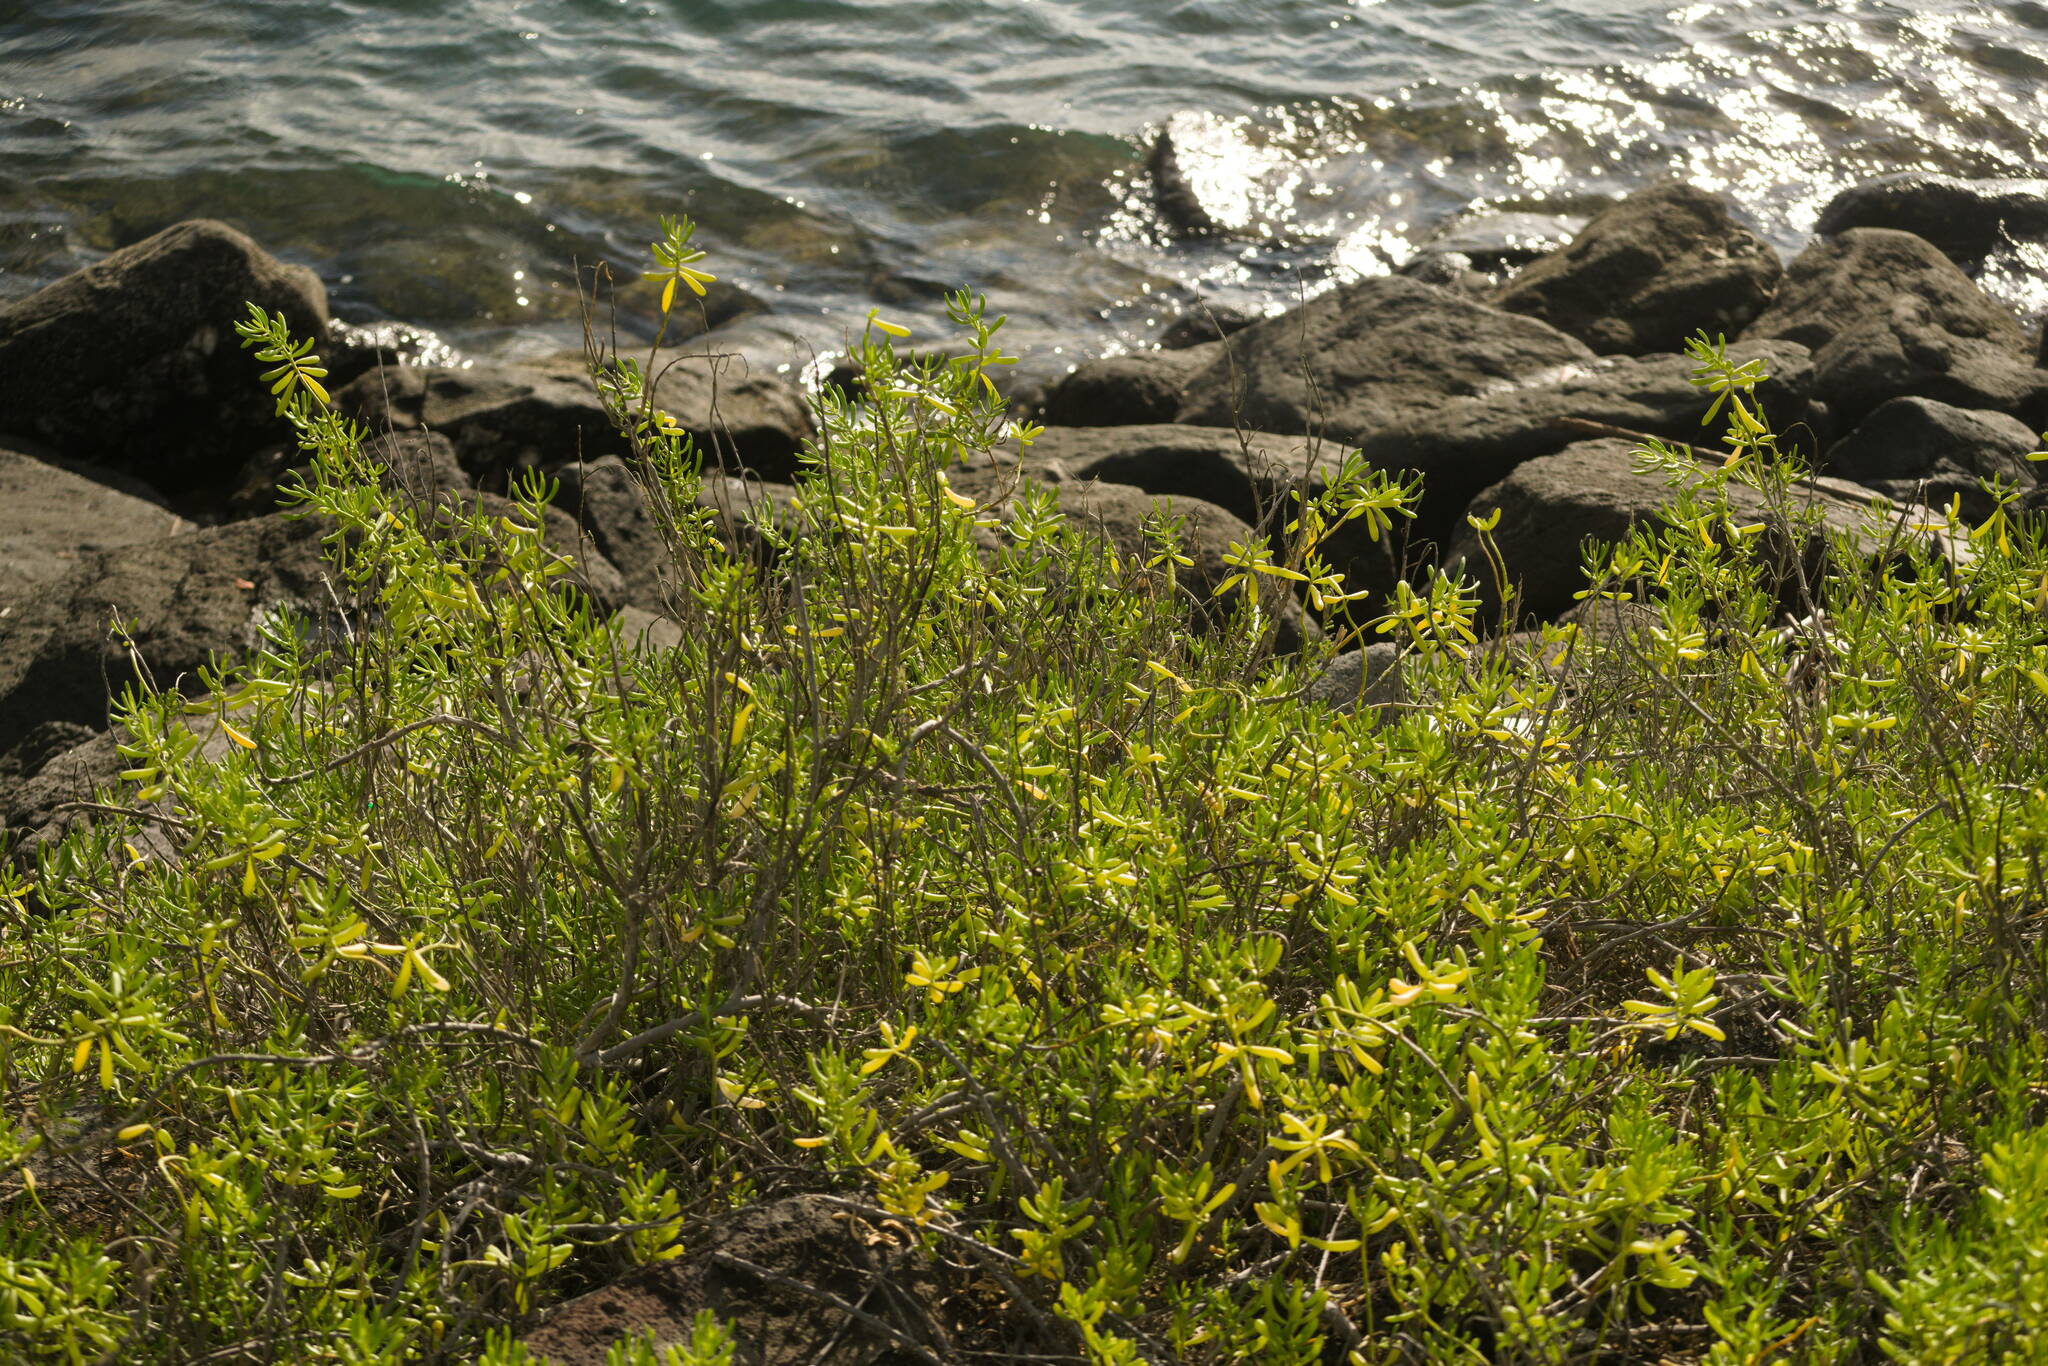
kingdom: Plantae
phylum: Tracheophyta
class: Magnoliopsida
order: Brassicales
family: Bataceae
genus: Batis
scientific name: Batis maritima
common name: Turtleweed
